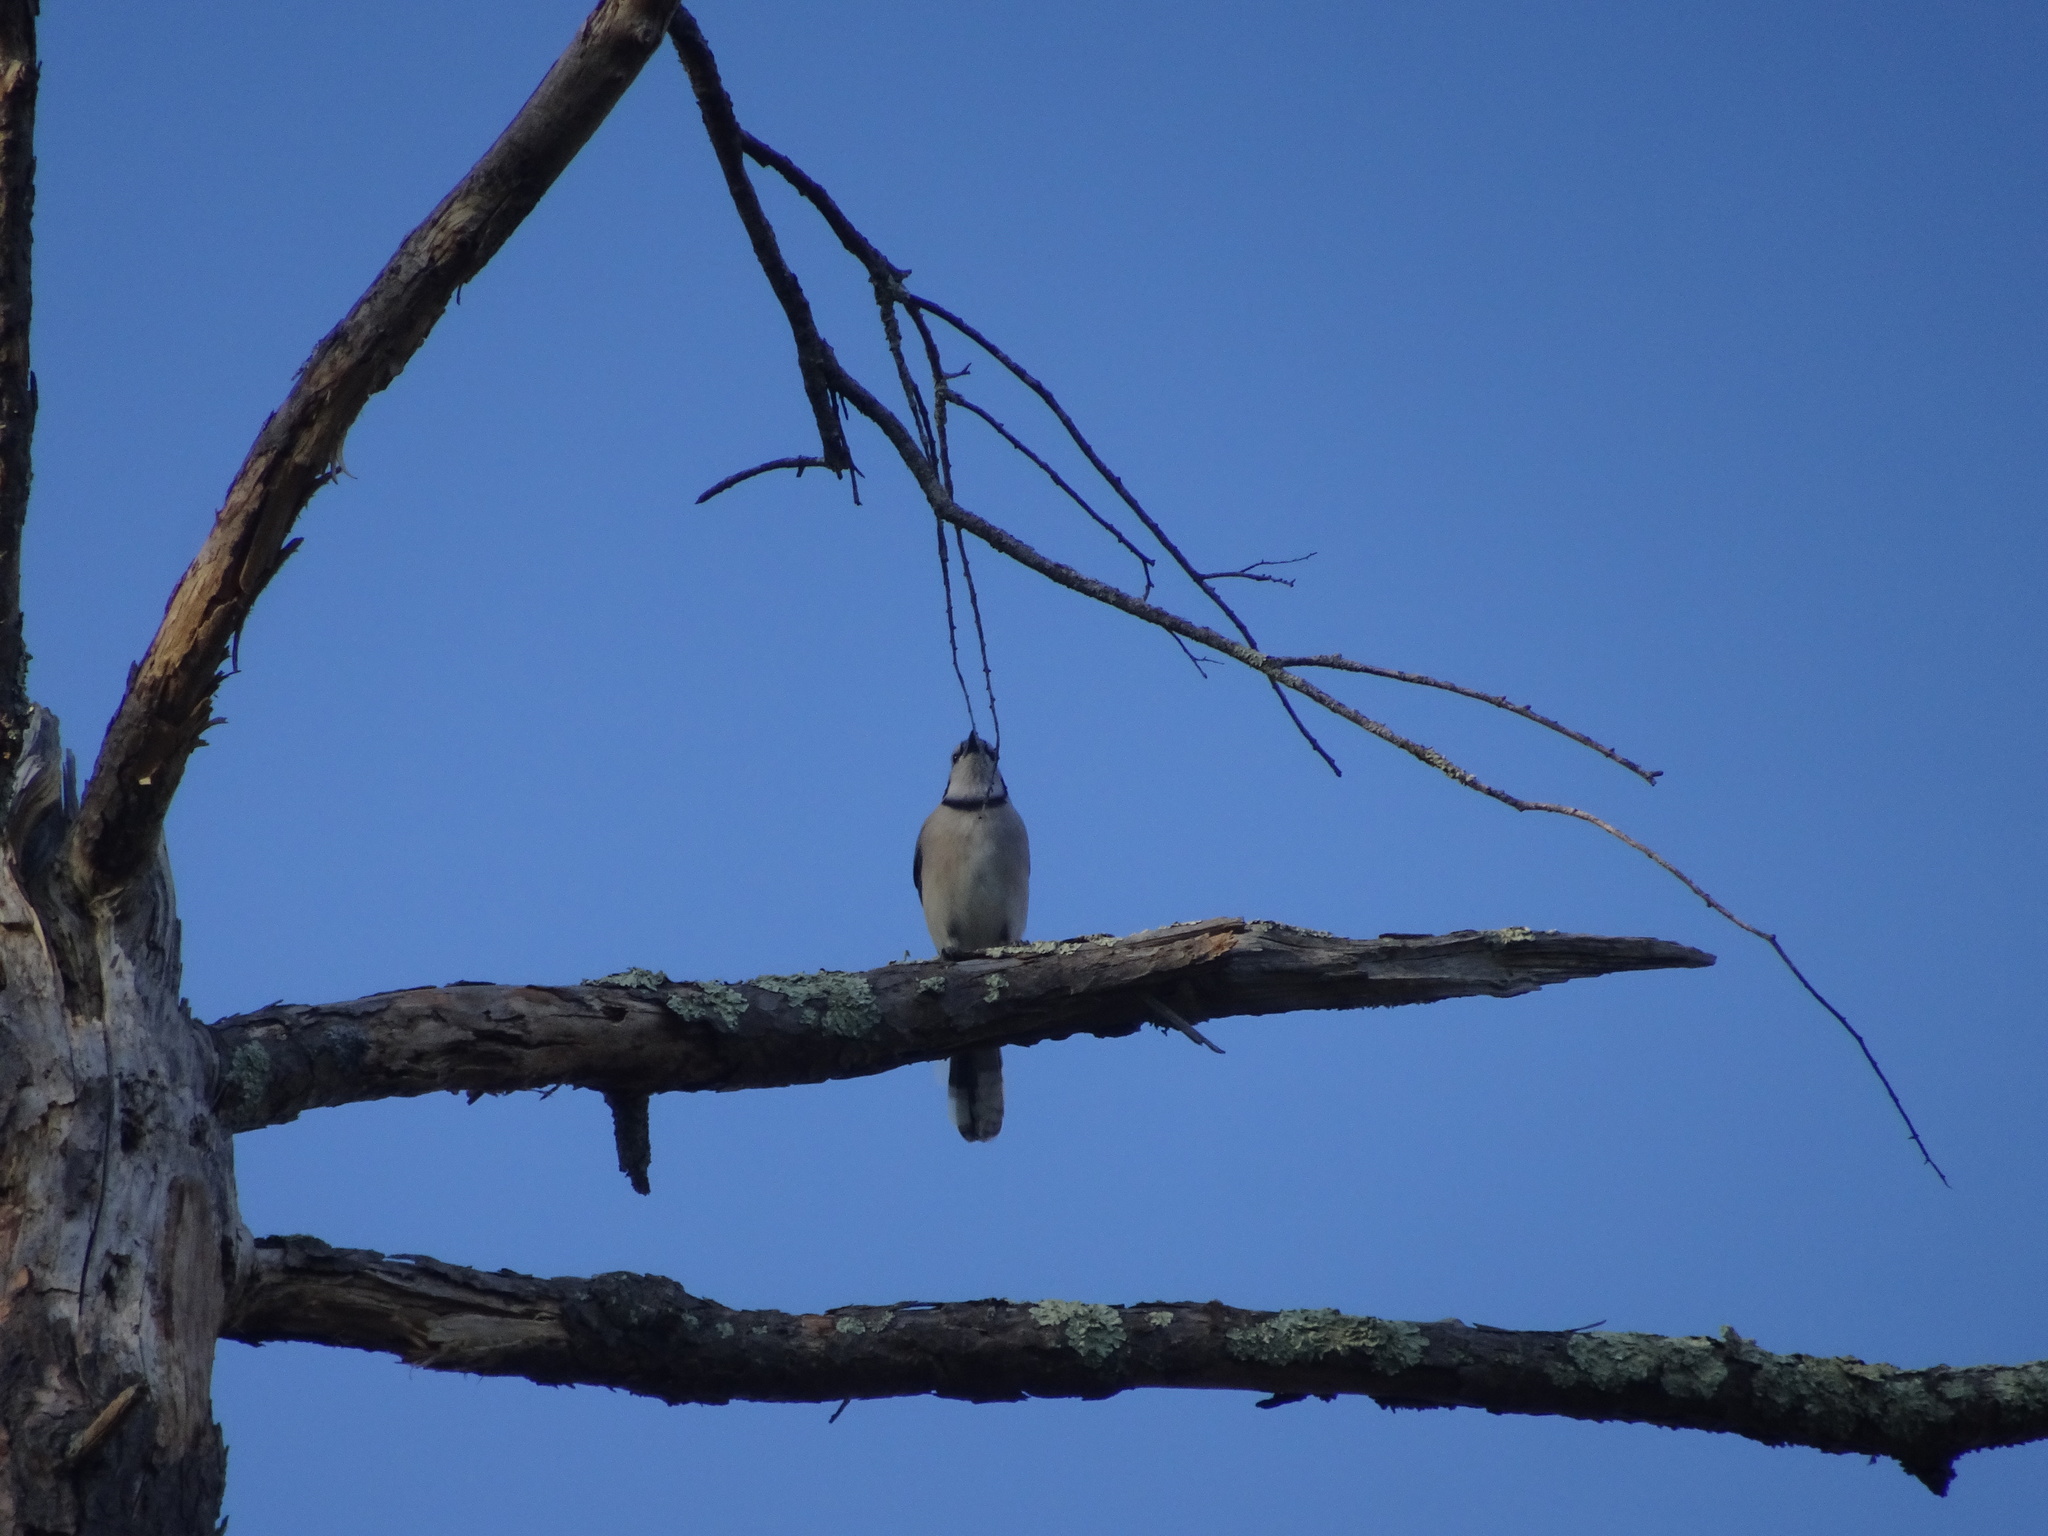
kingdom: Animalia
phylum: Chordata
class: Aves
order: Passeriformes
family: Corvidae
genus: Cyanocitta
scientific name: Cyanocitta cristata
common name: Blue jay
